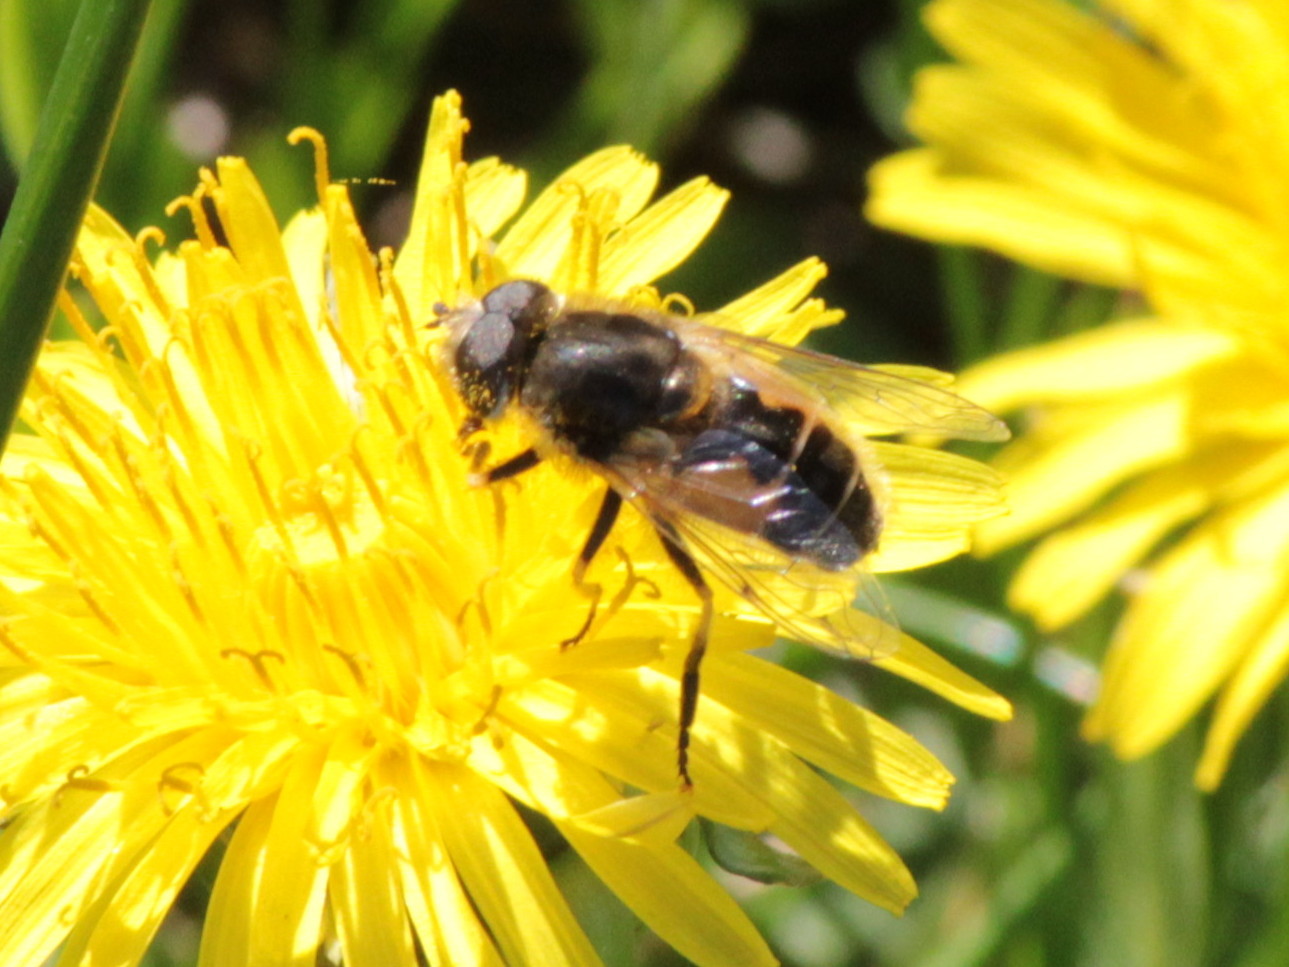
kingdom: Animalia
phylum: Arthropoda
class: Insecta
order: Diptera
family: Syrphidae
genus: Eristalis
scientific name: Eristalis arbustorum
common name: Hover fly
